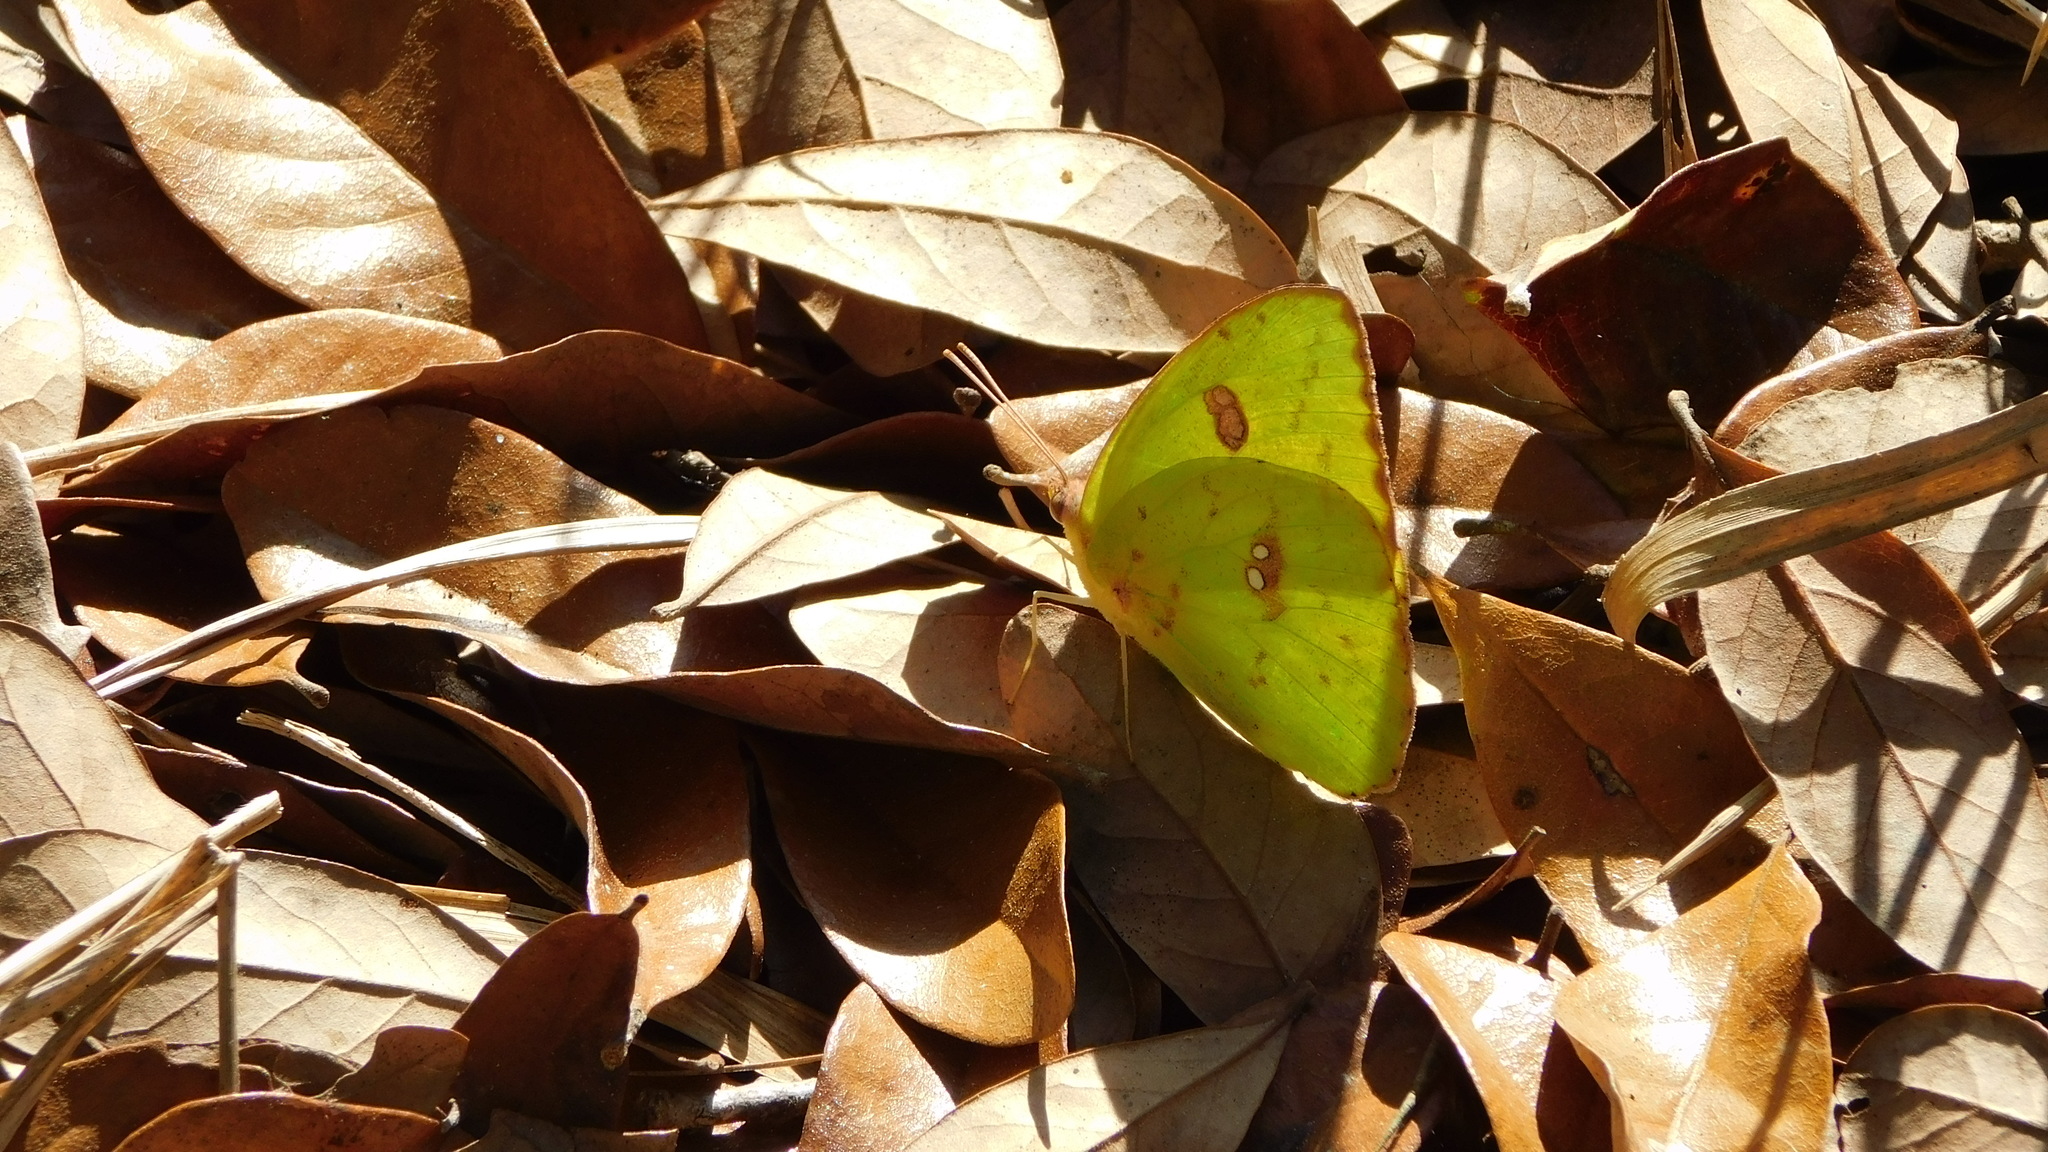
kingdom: Animalia
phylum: Arthropoda
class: Insecta
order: Lepidoptera
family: Pieridae
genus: Phoebis
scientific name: Phoebis sennae
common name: Cloudless sulphur
